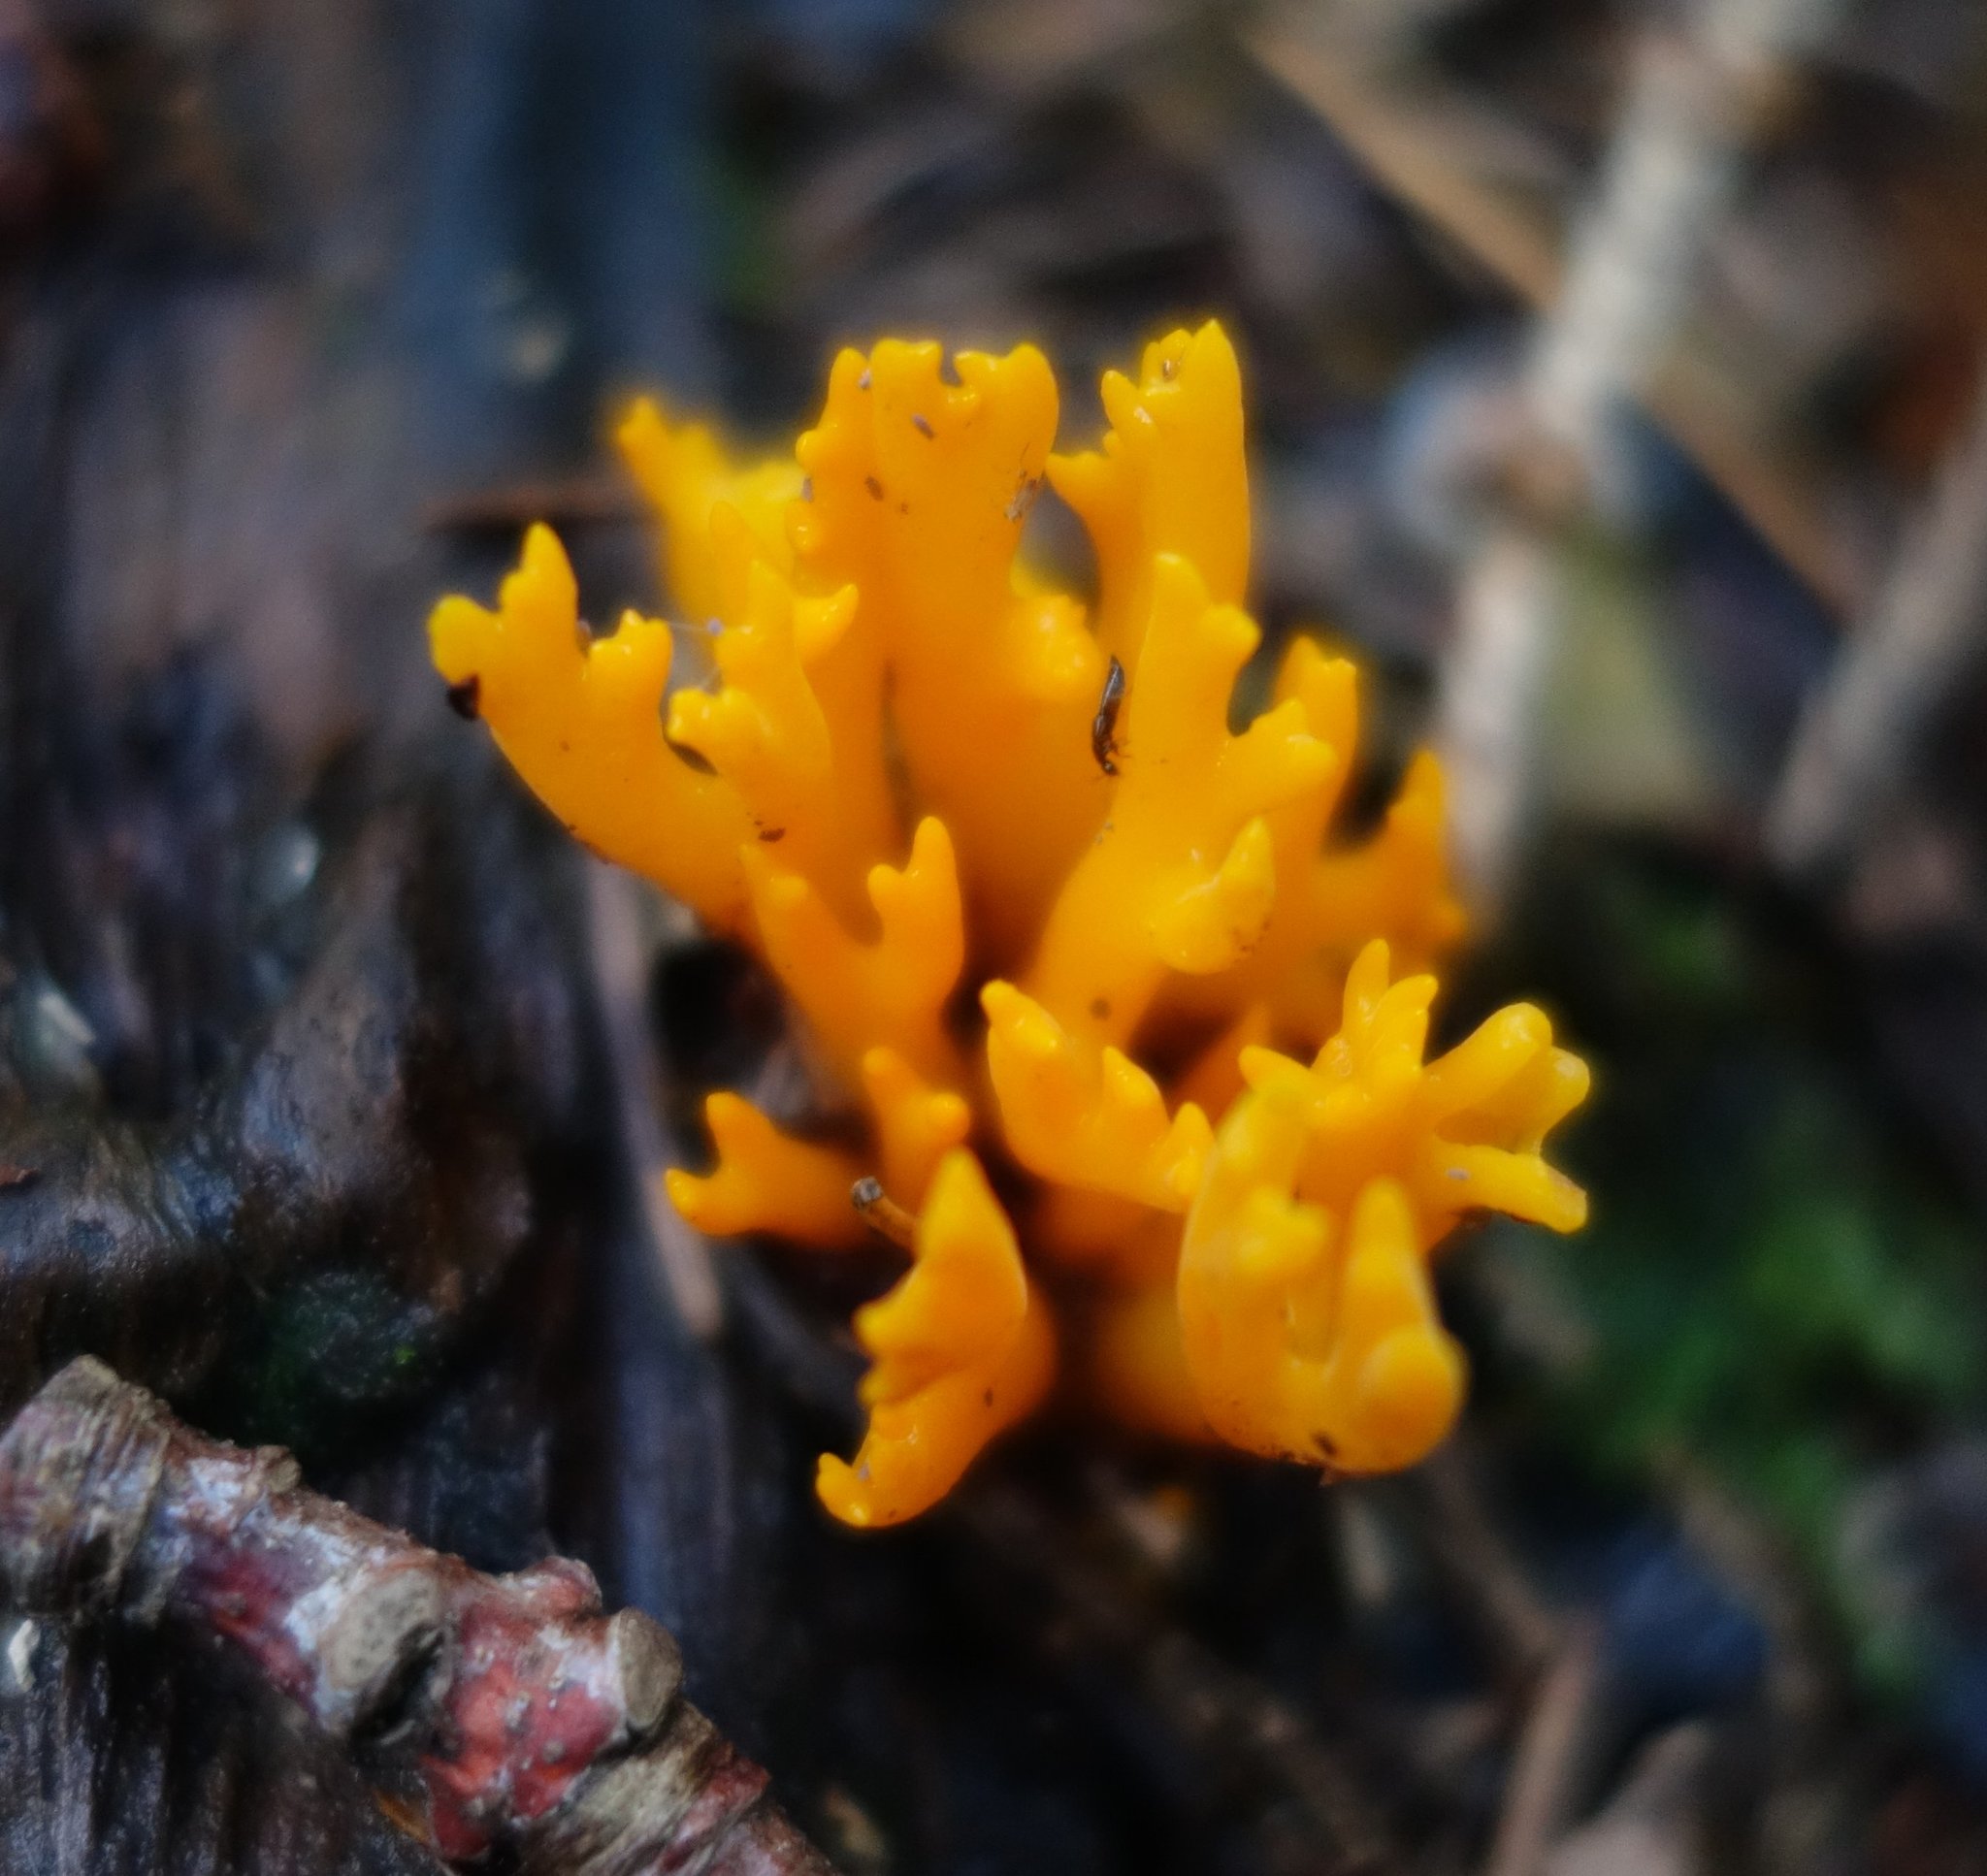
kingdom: Fungi
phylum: Basidiomycota
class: Dacrymycetes
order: Dacrymycetales
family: Dacrymycetaceae
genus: Calocera
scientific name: Calocera viscosa
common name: Yellow stagshorn
